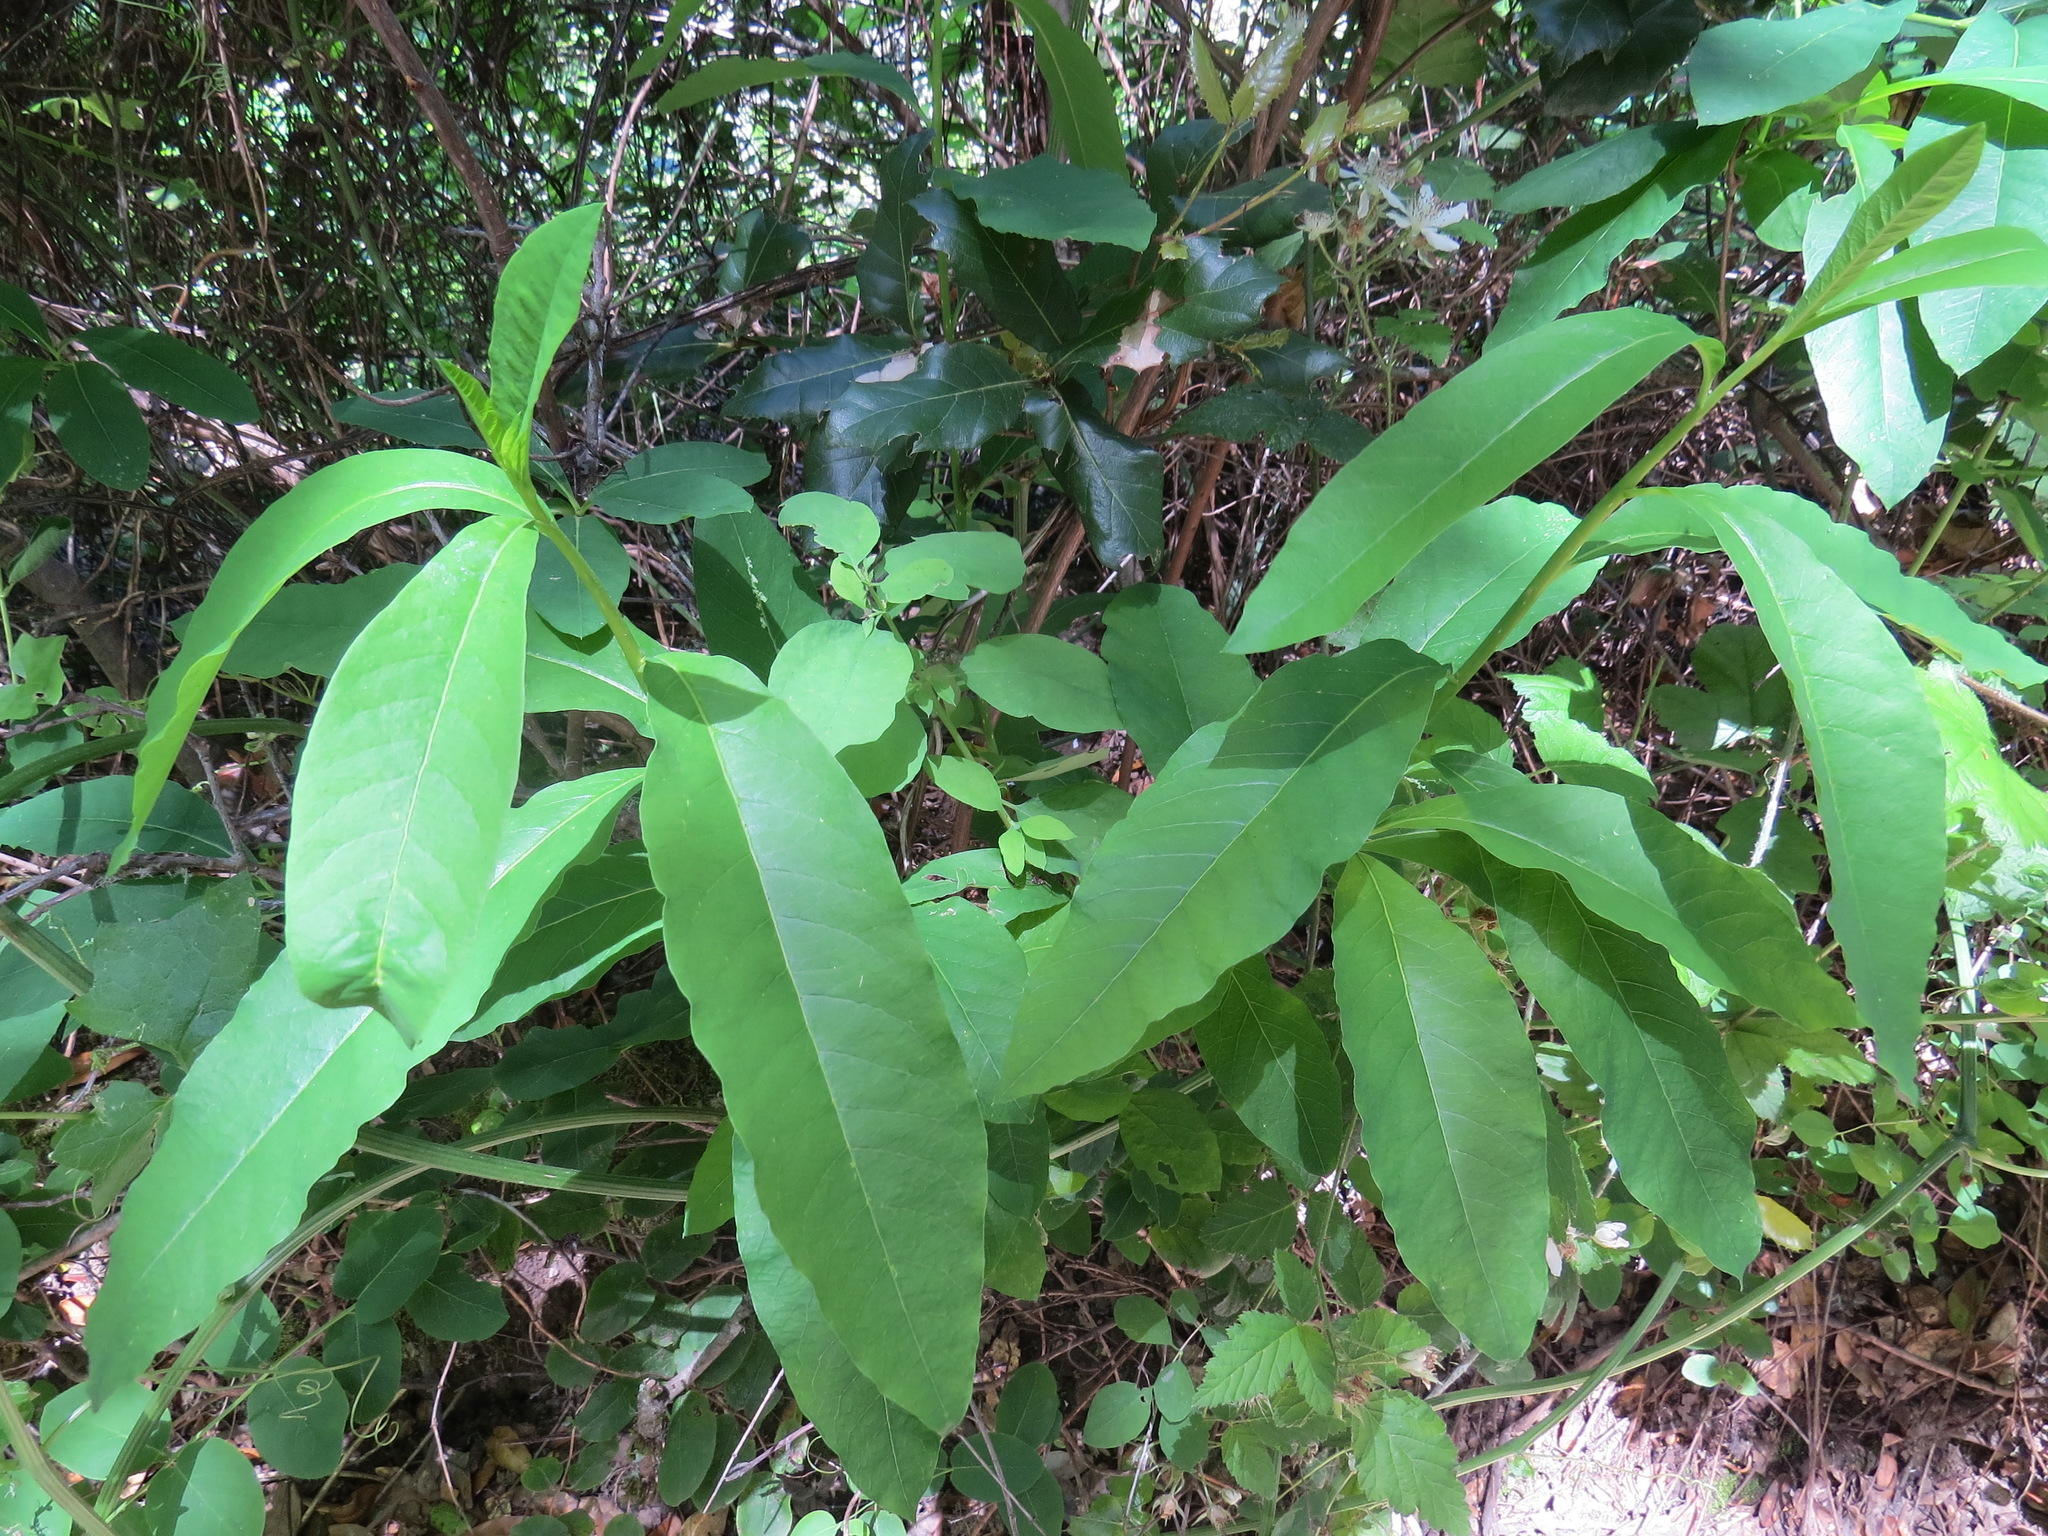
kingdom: Plantae
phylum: Tracheophyta
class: Magnoliopsida
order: Rosales
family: Rosaceae
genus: Oemleria
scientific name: Oemleria cerasiformis
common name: Osoberry
